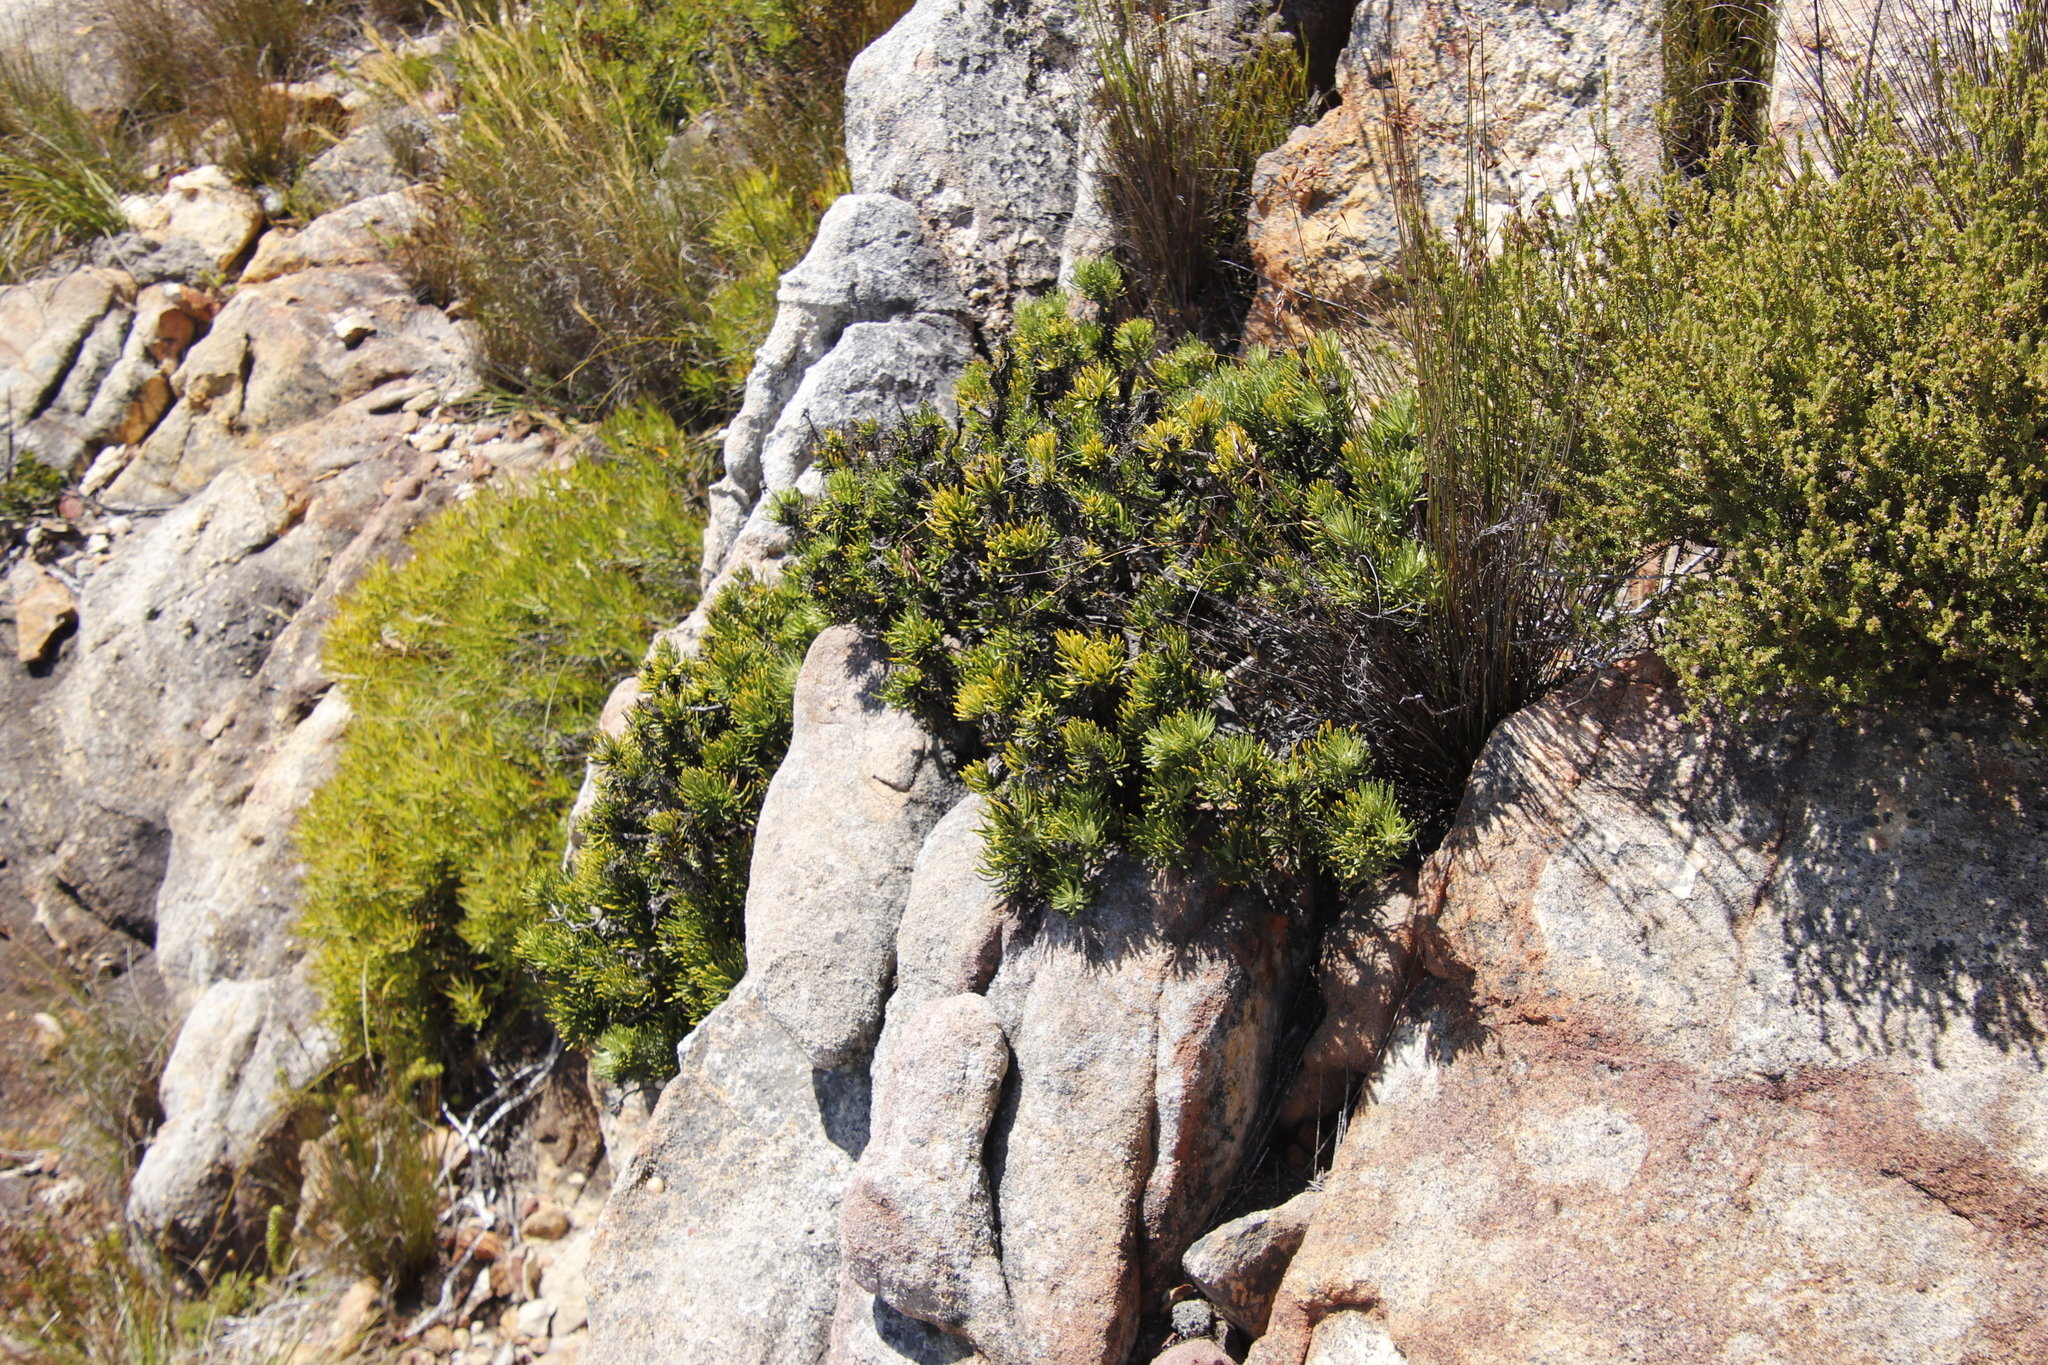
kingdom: Plantae
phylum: Tracheophyta
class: Magnoliopsida
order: Asterales
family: Asteraceae
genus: Heterolepis
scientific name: Heterolepis aliena
